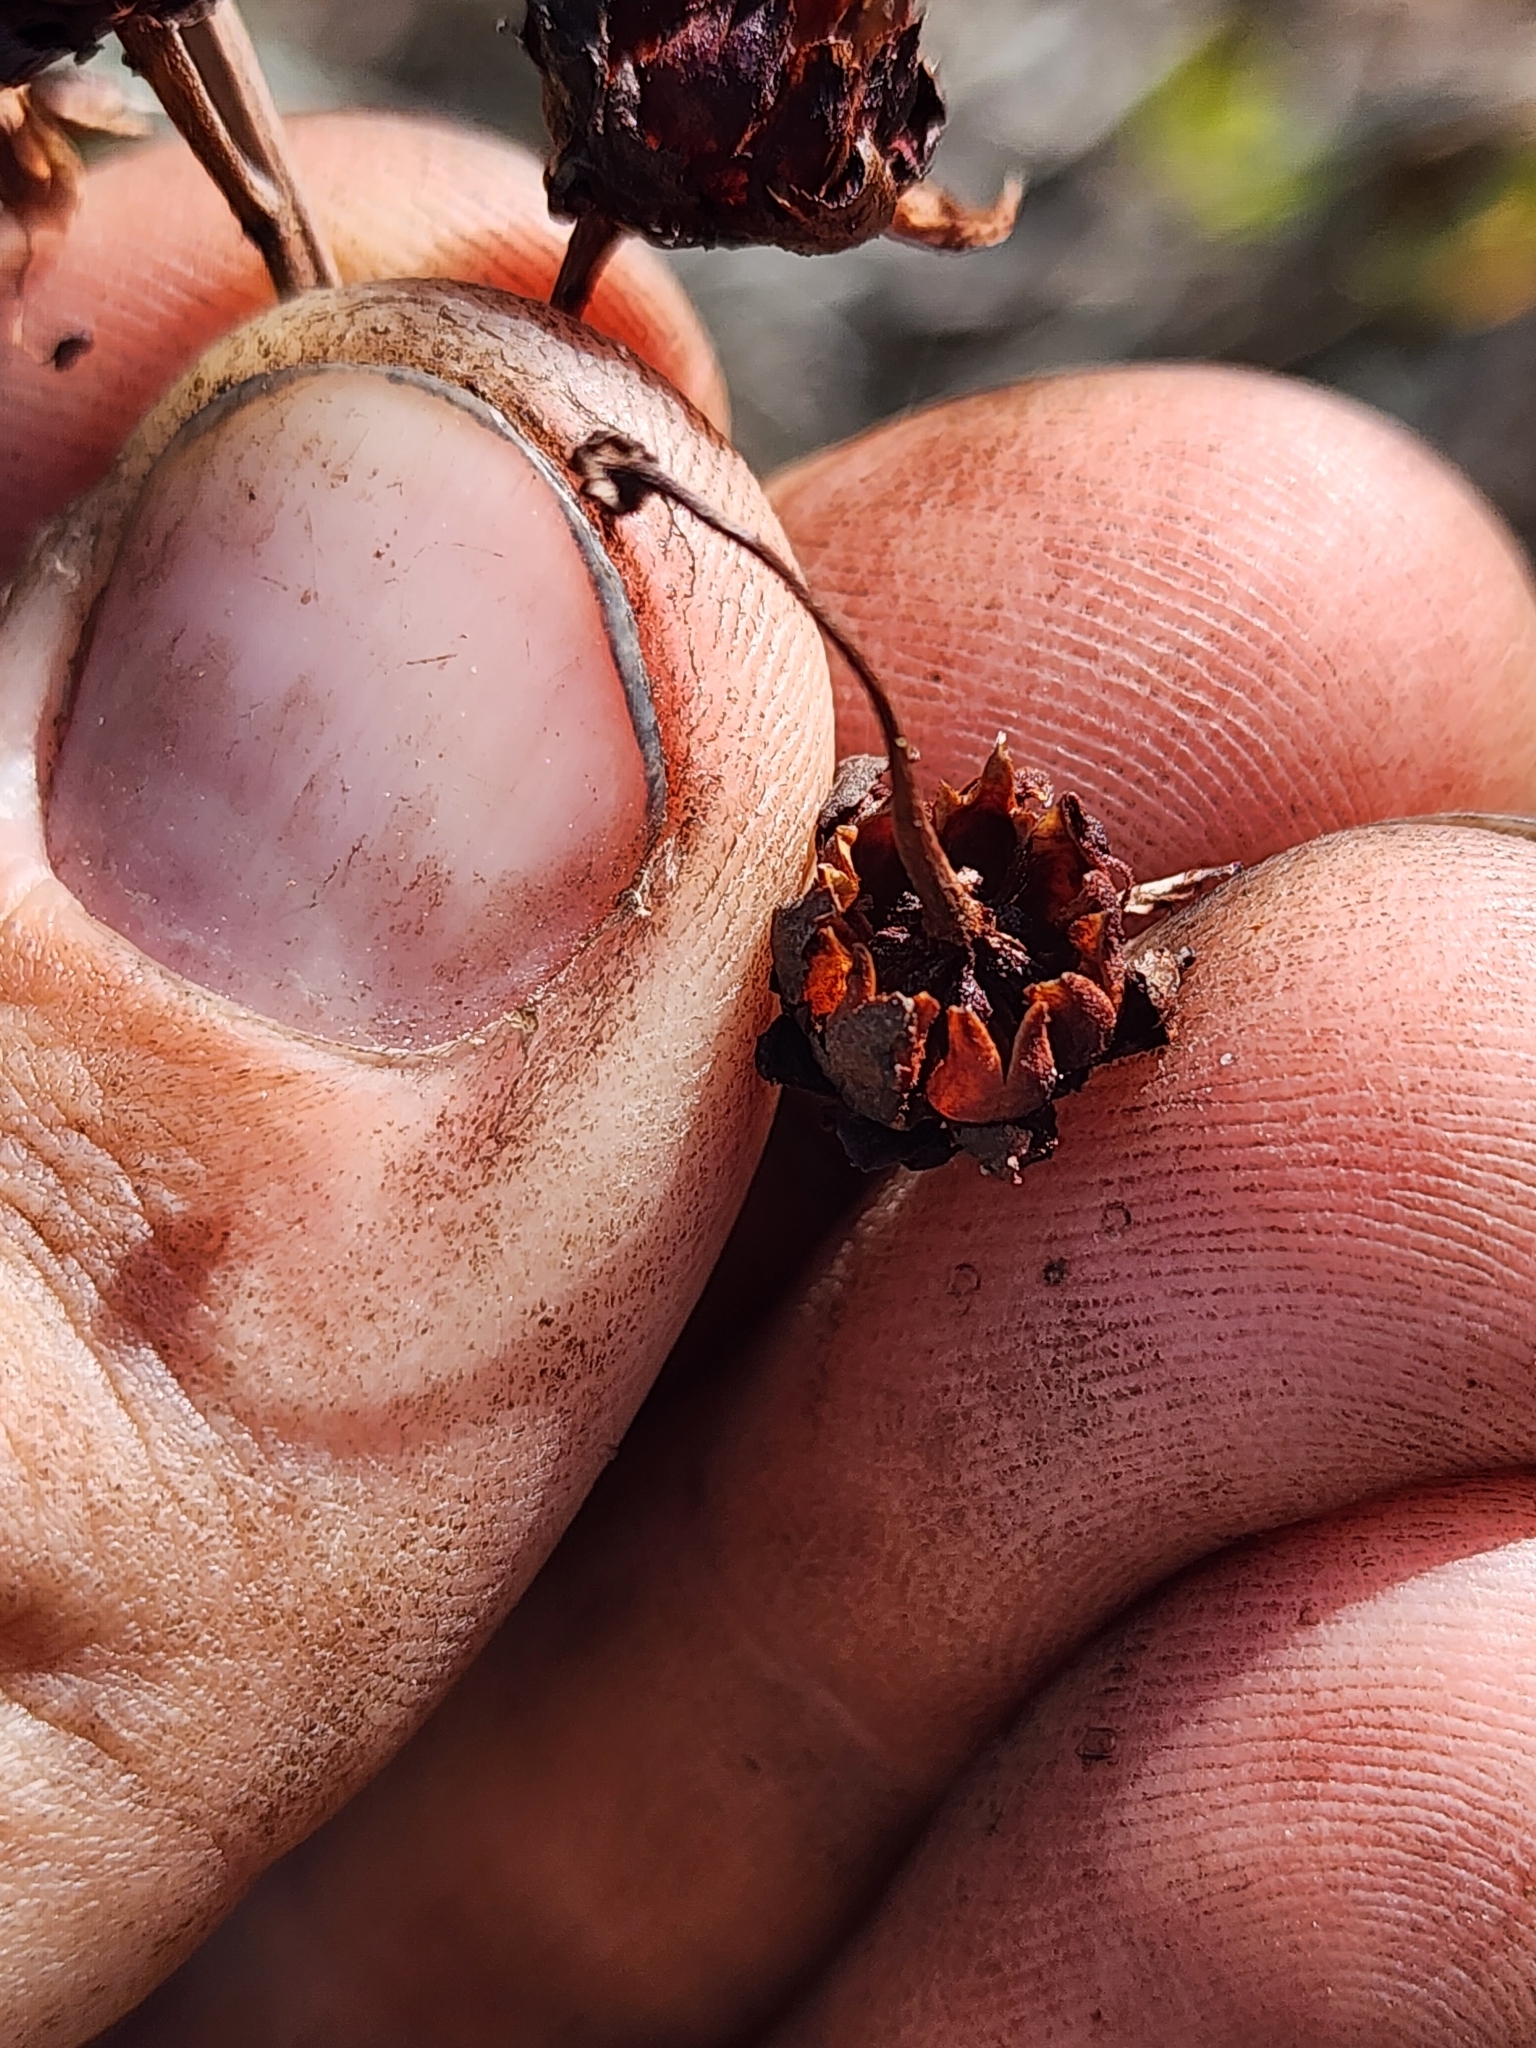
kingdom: Plantae
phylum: Tracheophyta
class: Magnoliopsida
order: Ericales
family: Ericaceae
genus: Bejaria
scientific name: Bejaria racemosa
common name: Tarflower
